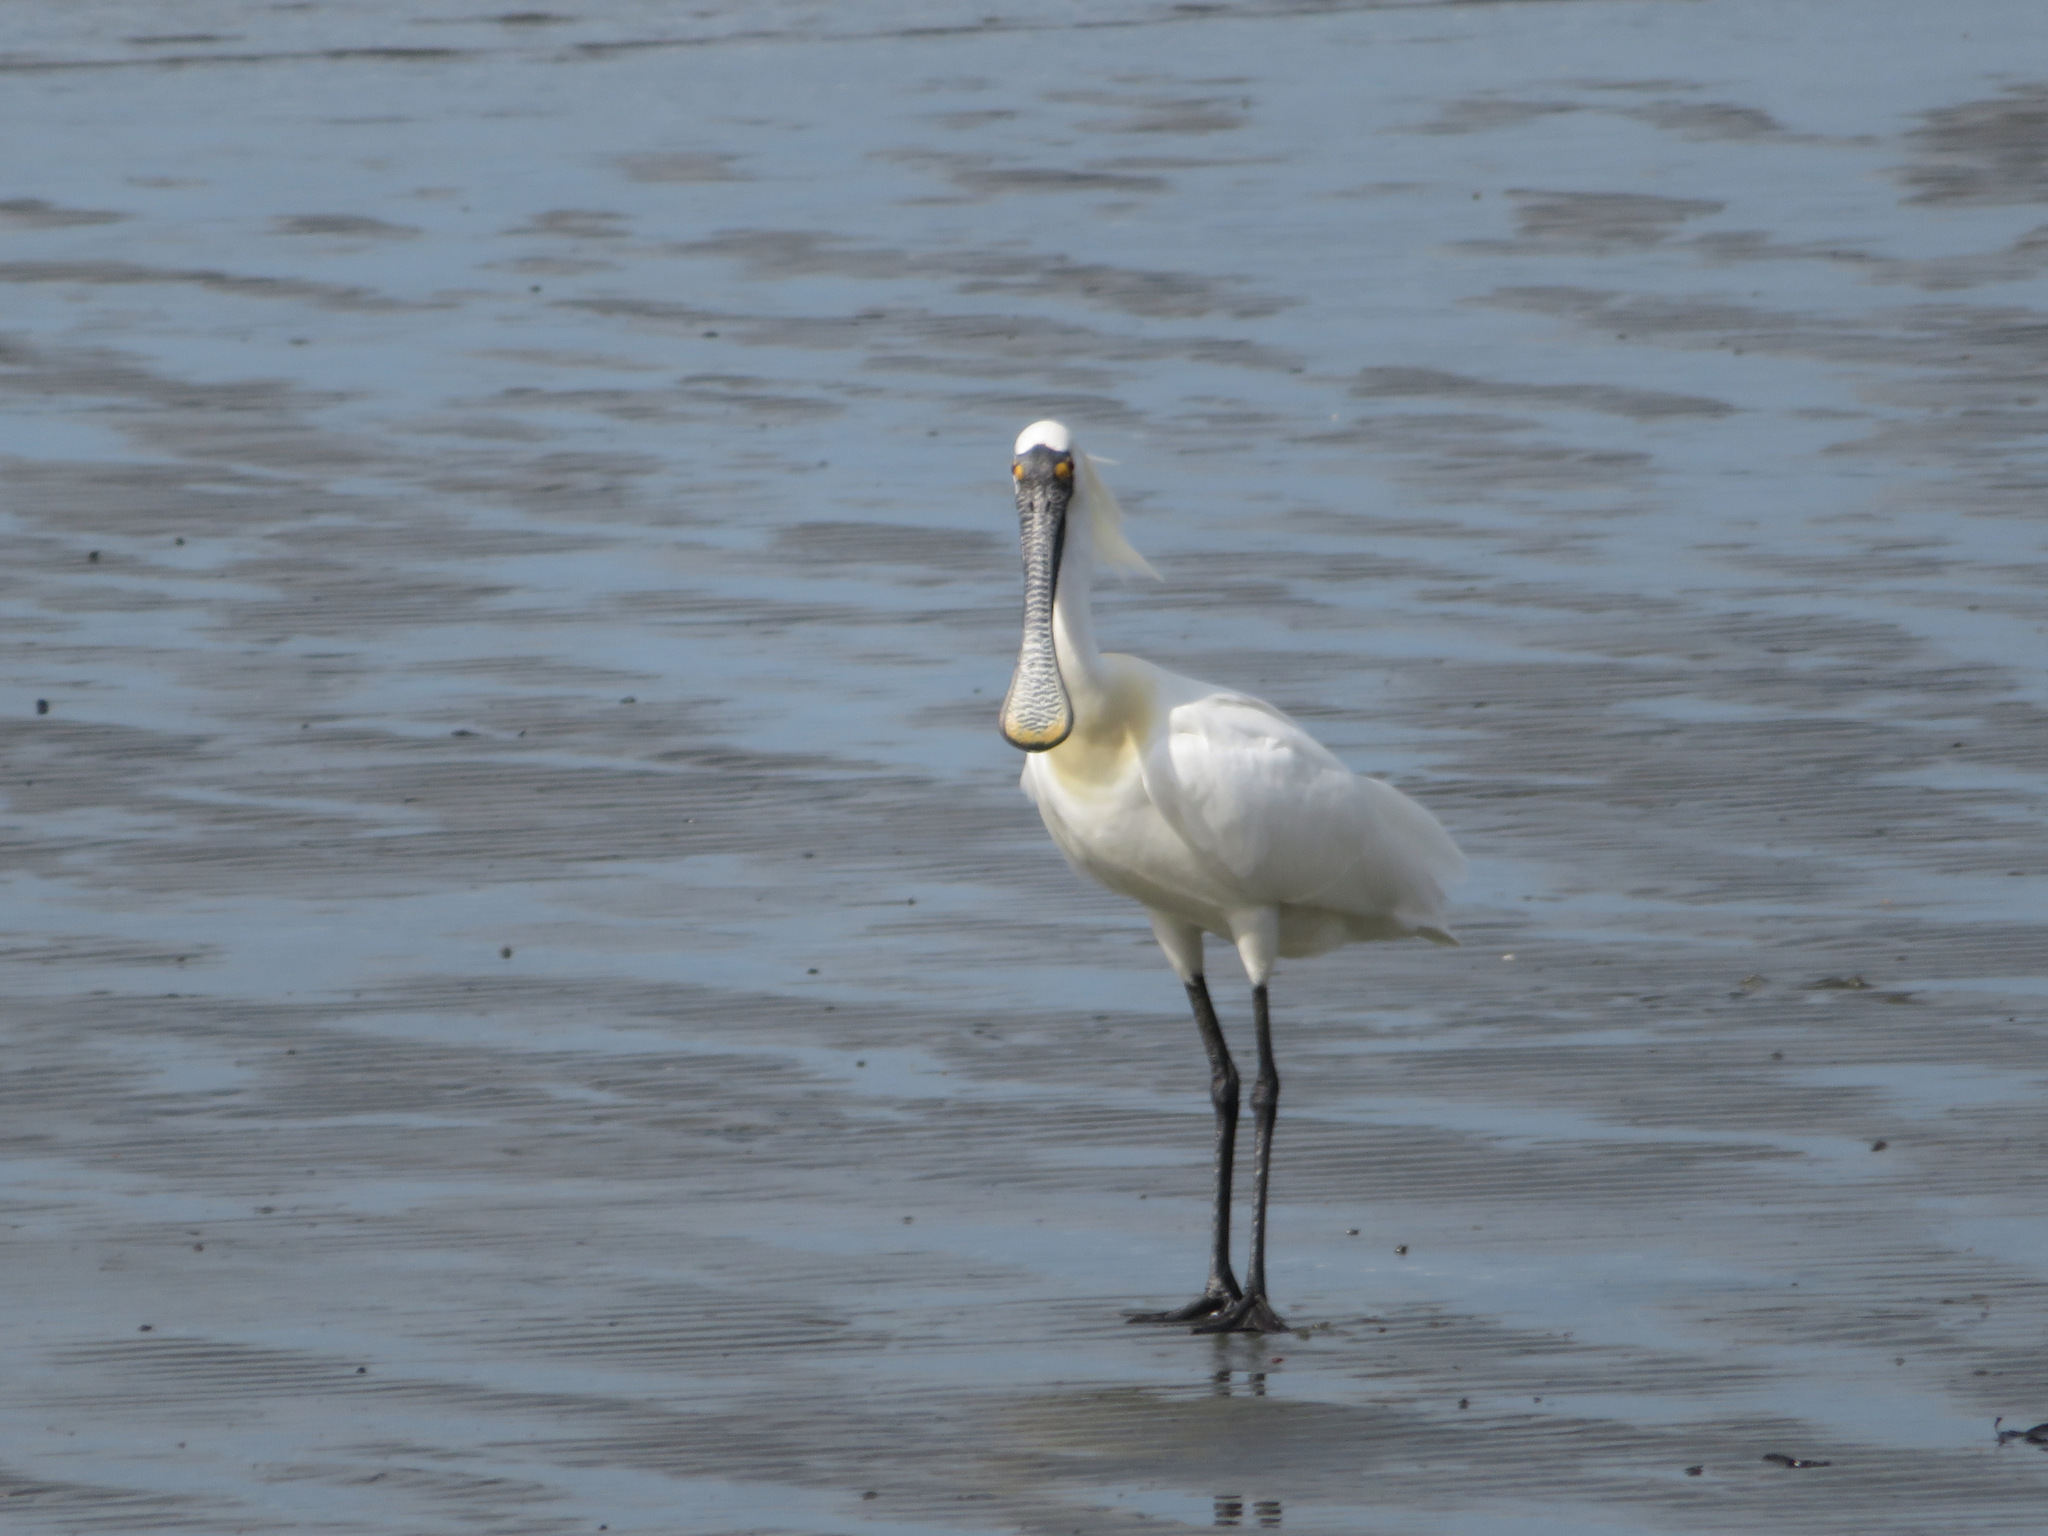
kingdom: Animalia
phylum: Chordata
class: Aves
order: Pelecaniformes
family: Threskiornithidae
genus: Platalea
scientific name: Platalea minor
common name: Black-faced spoonbill
